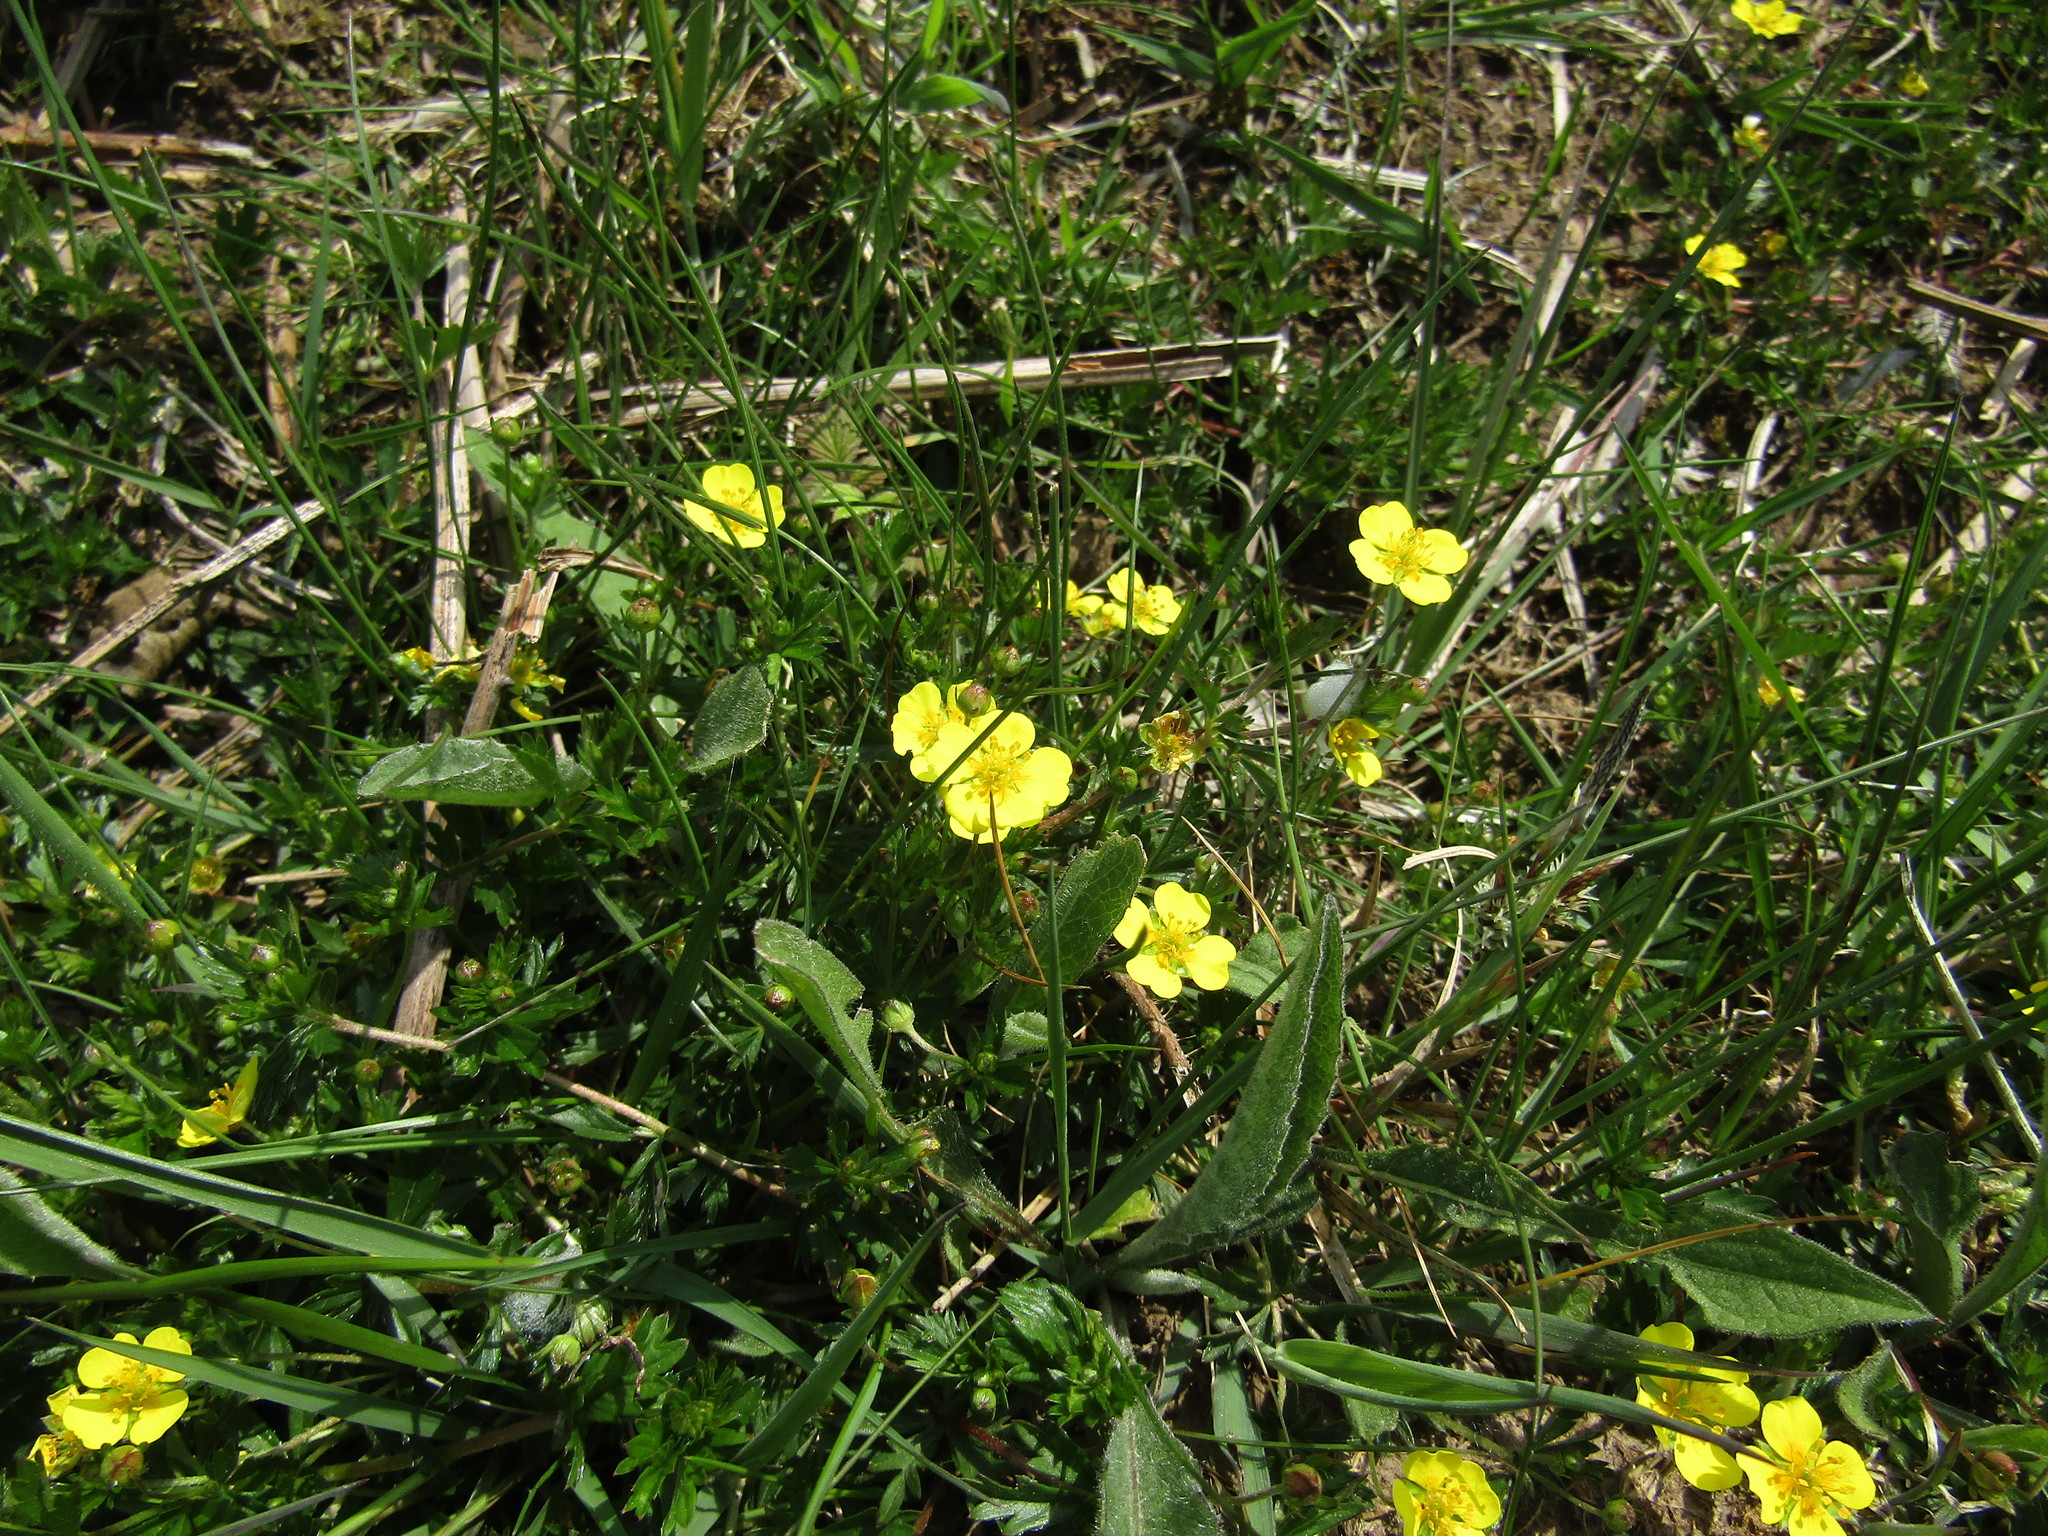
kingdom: Plantae
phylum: Tracheophyta
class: Magnoliopsida
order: Rosales
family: Rosaceae
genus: Potentilla
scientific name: Potentilla verna
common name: Spring cinquefoil
